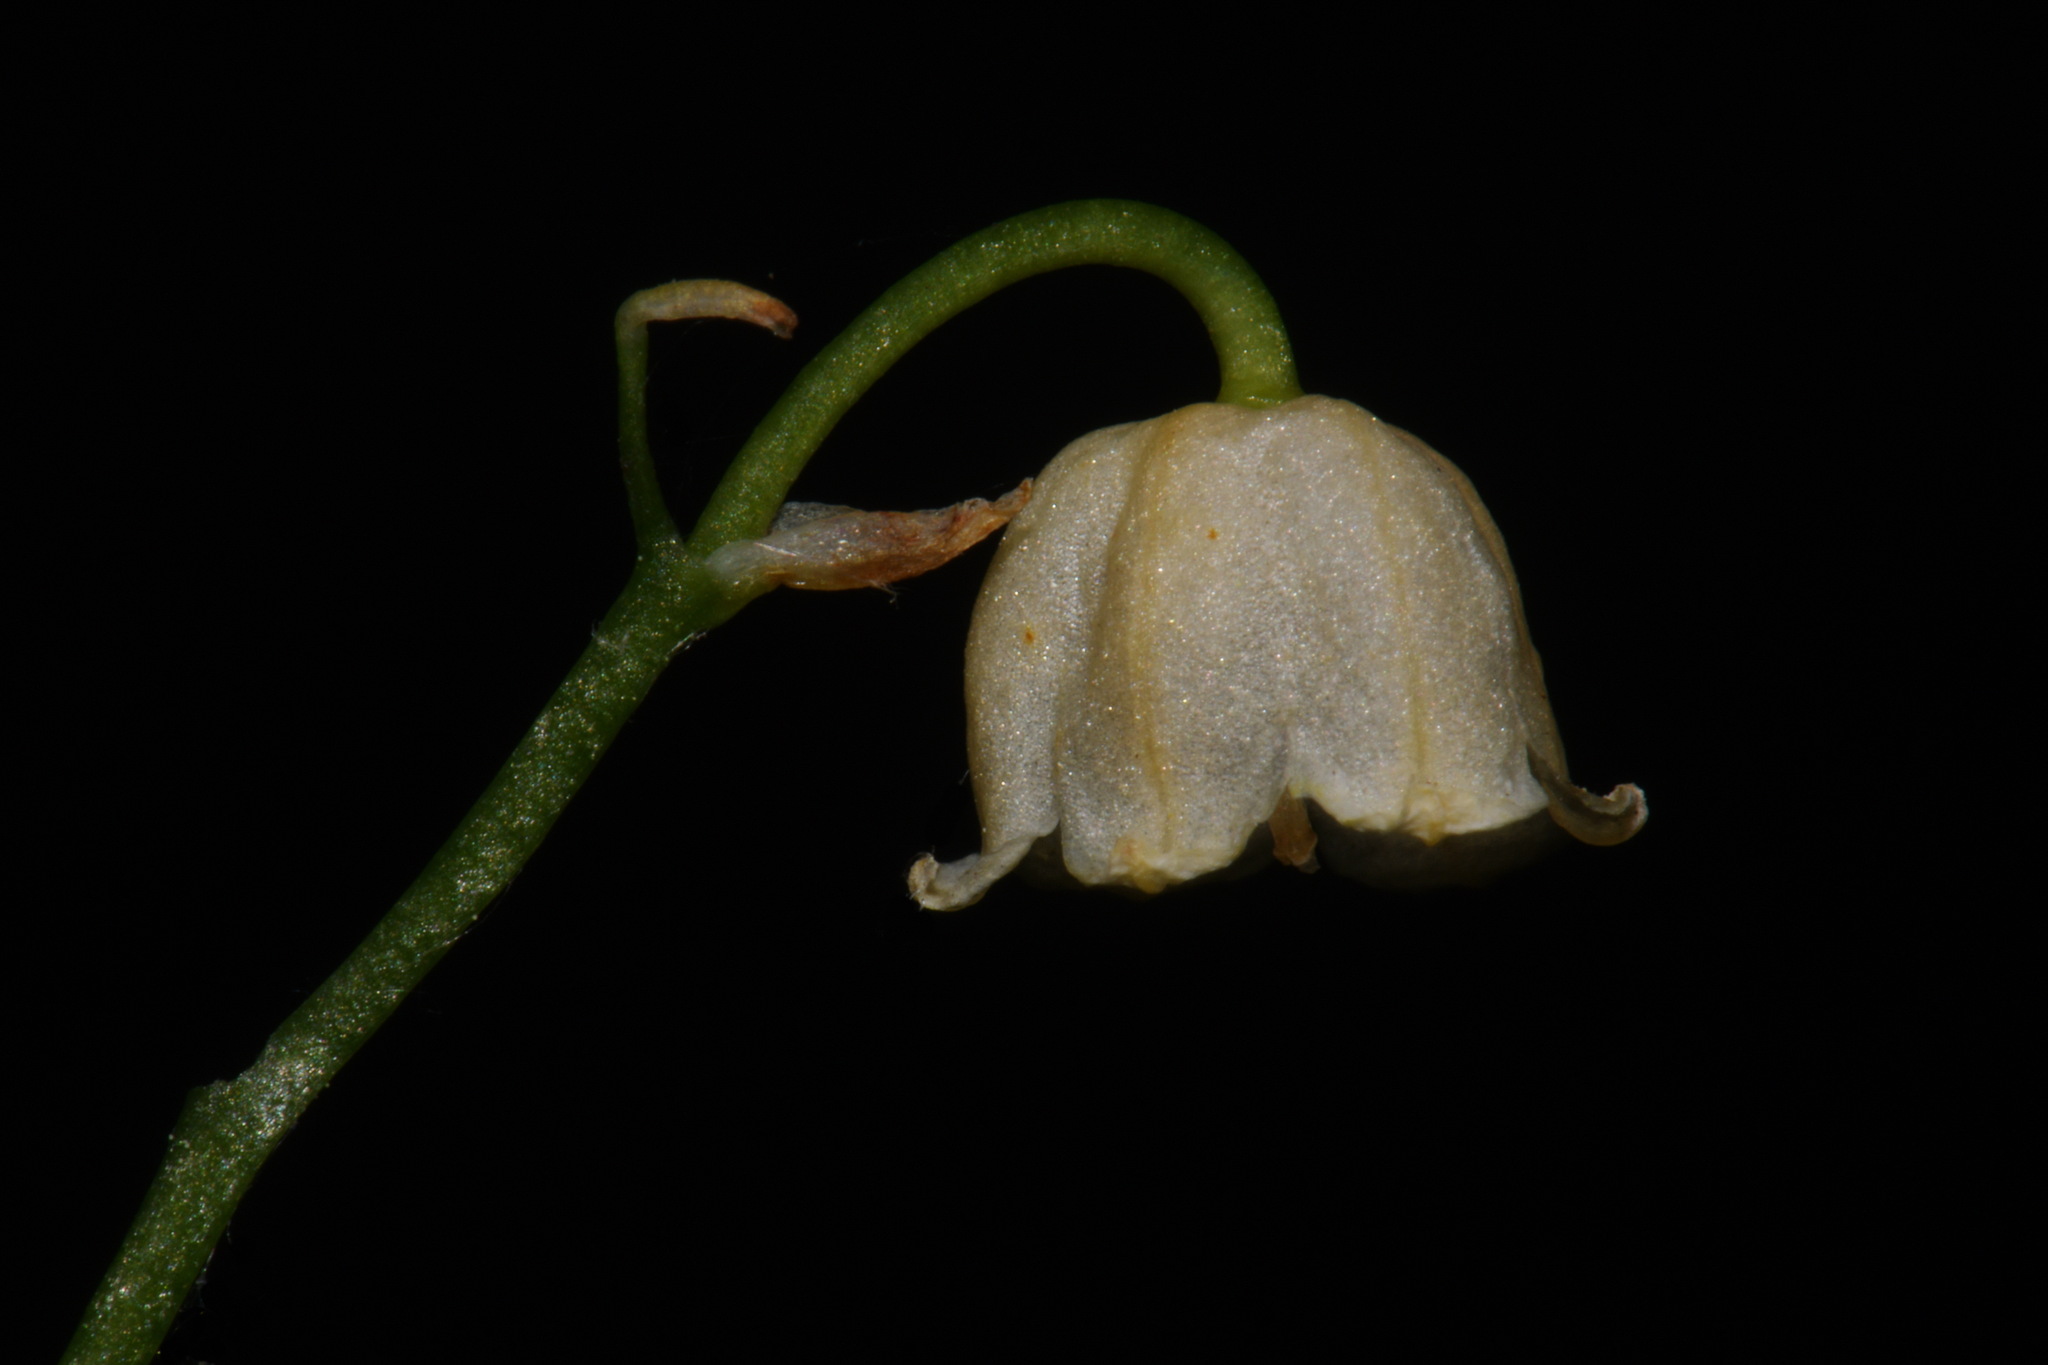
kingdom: Plantae
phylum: Tracheophyta
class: Liliopsida
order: Asparagales
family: Asparagaceae
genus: Convallaria
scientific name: Convallaria majalis
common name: Lily-of-the-valley
